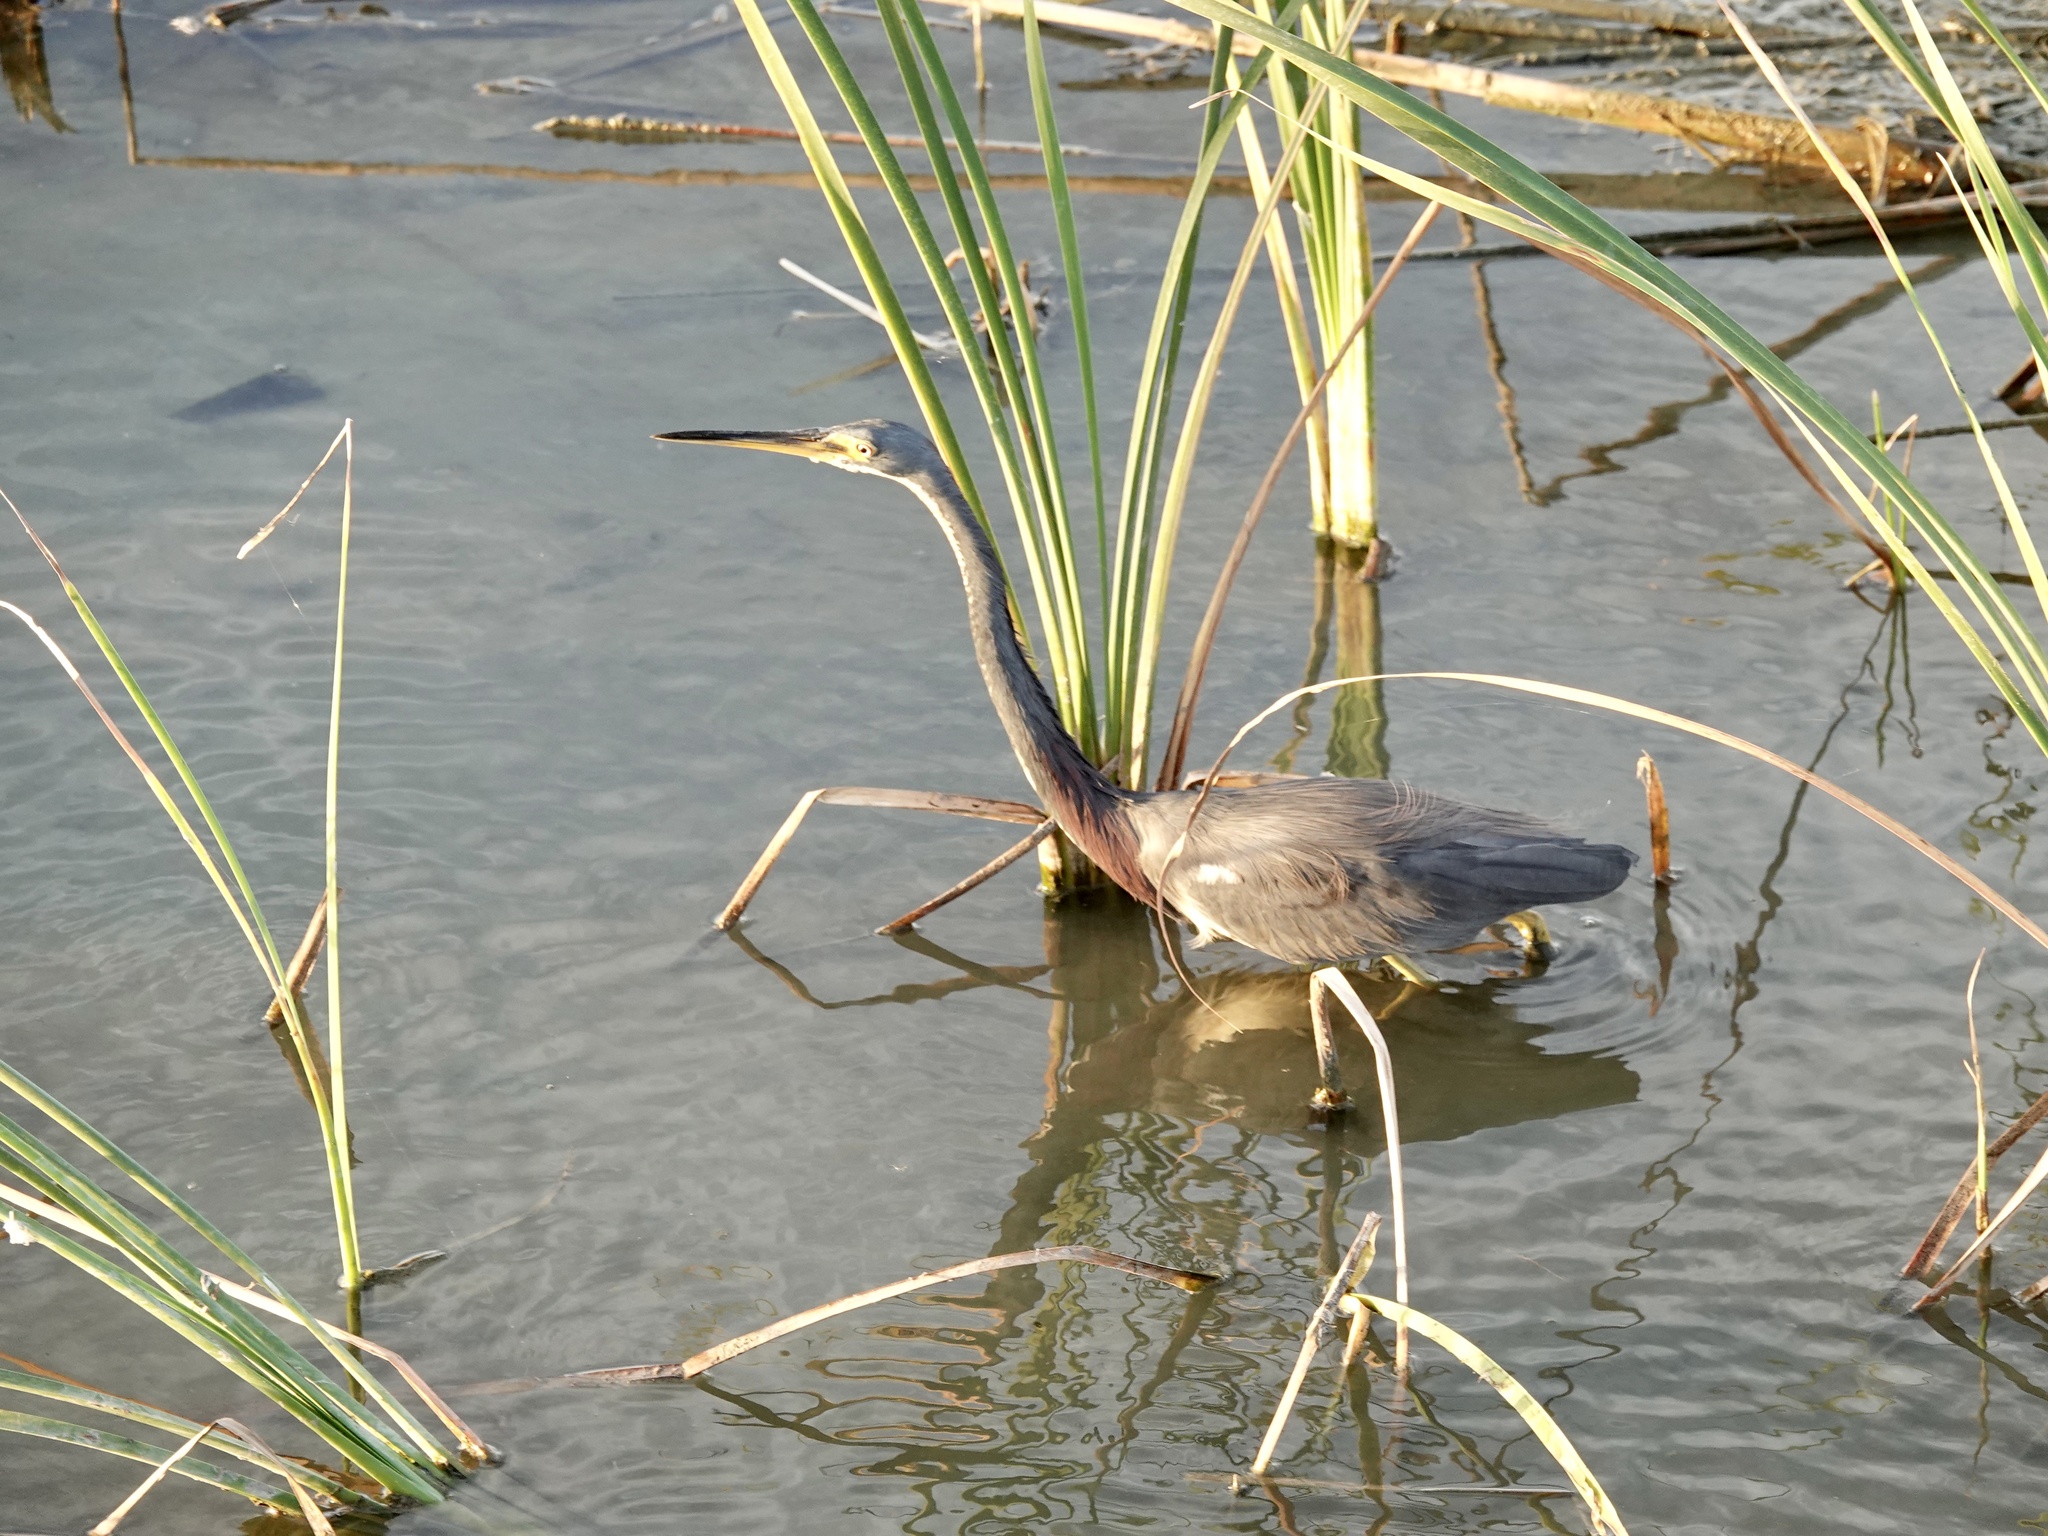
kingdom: Animalia
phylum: Chordata
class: Aves
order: Pelecaniformes
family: Ardeidae
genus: Egretta
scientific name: Egretta tricolor
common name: Tricolored heron
